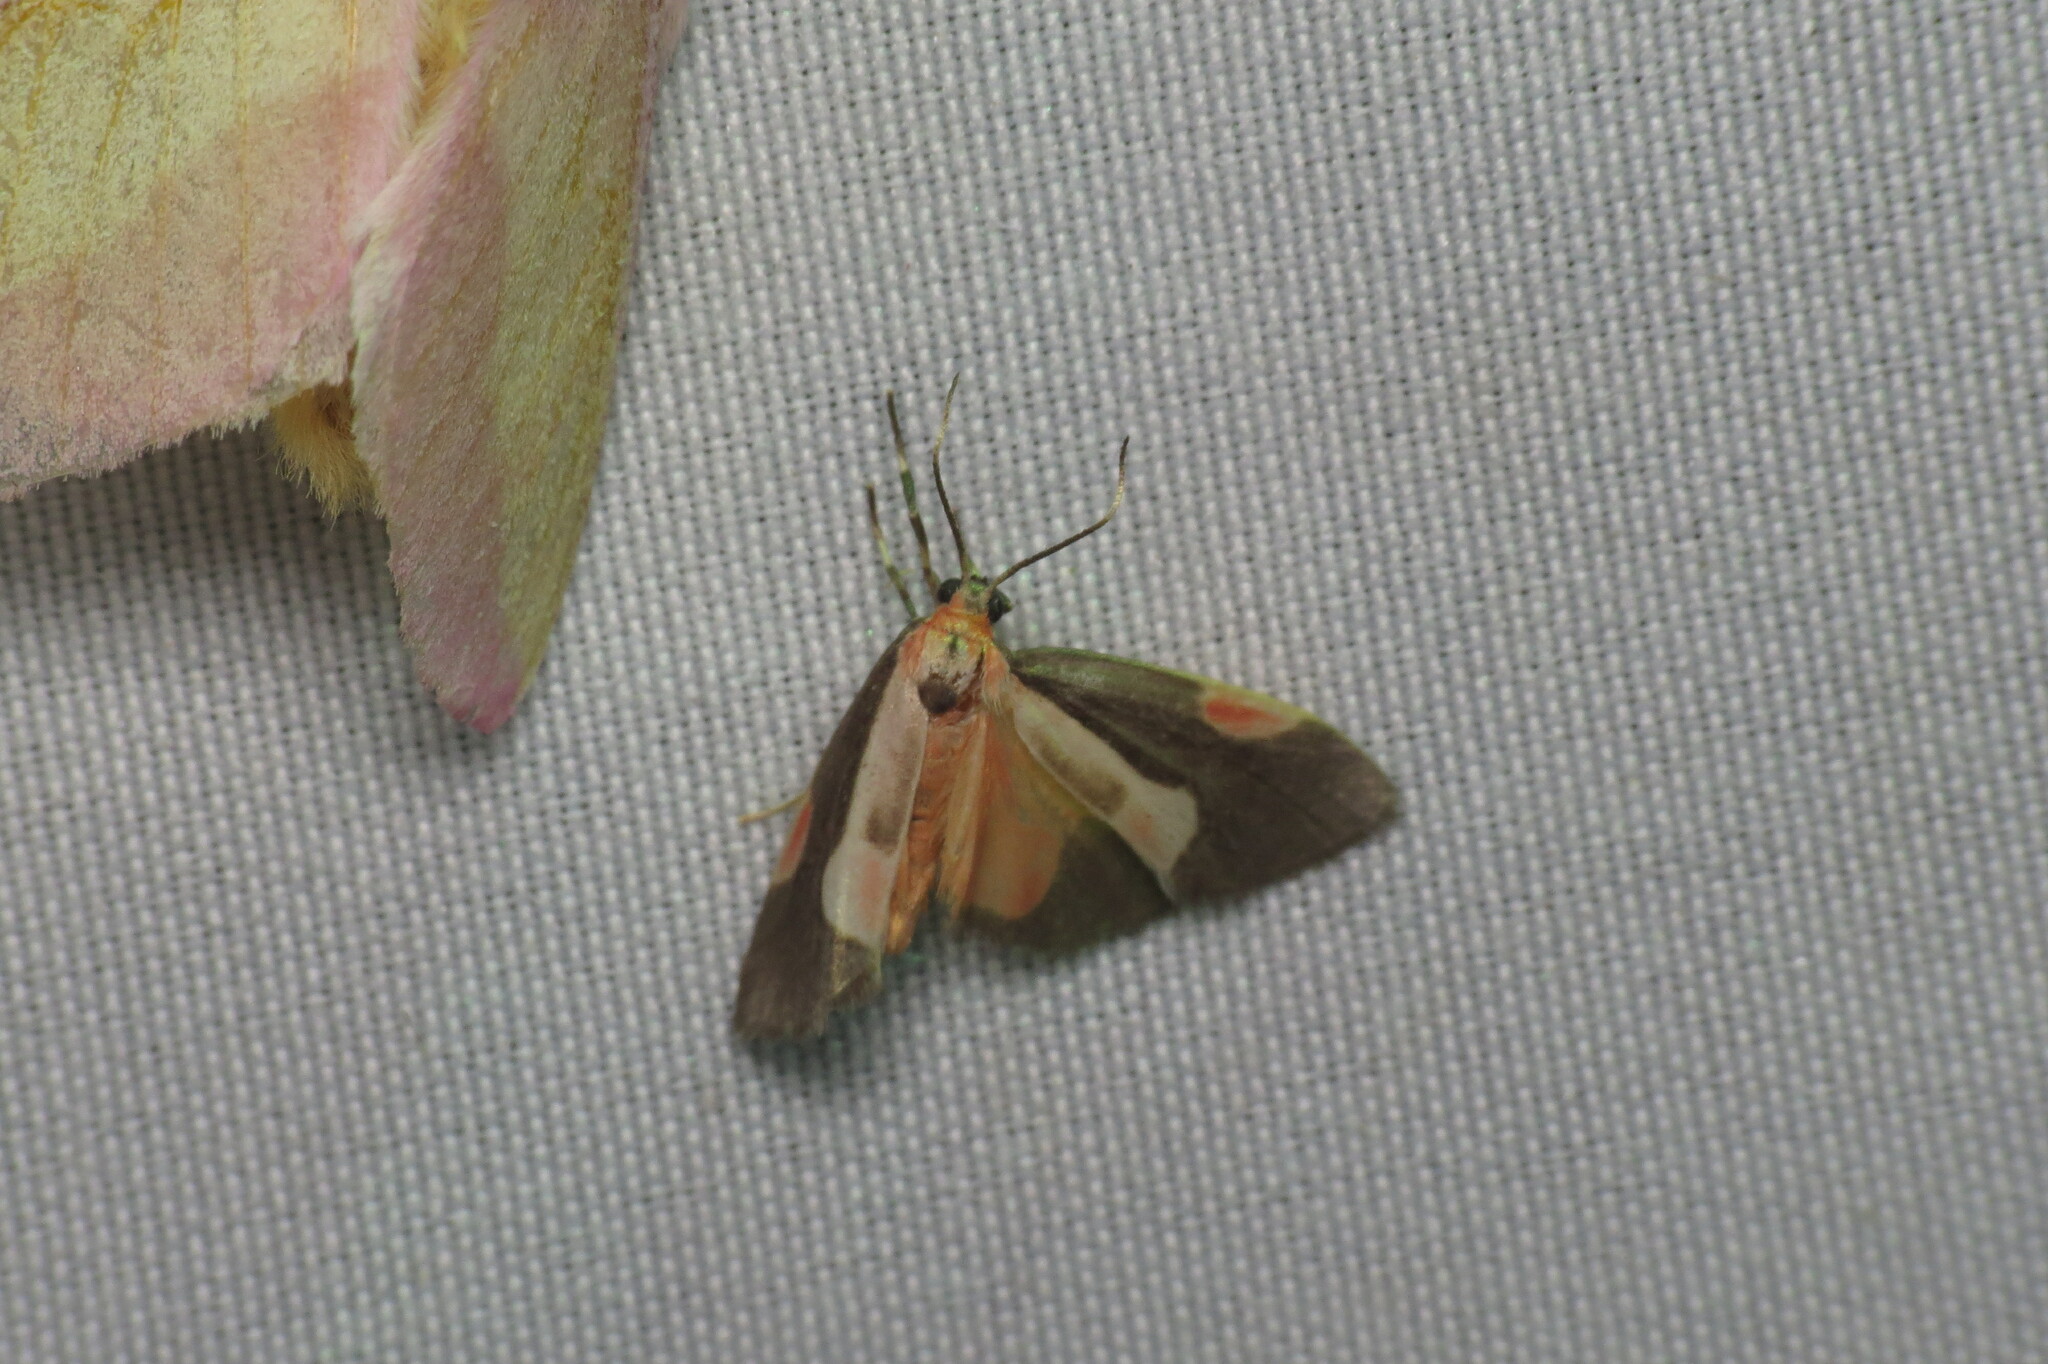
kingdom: Animalia
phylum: Arthropoda
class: Insecta
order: Lepidoptera
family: Erebidae
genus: Cisthene
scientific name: Cisthene packardii
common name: Packard's lichen moth
